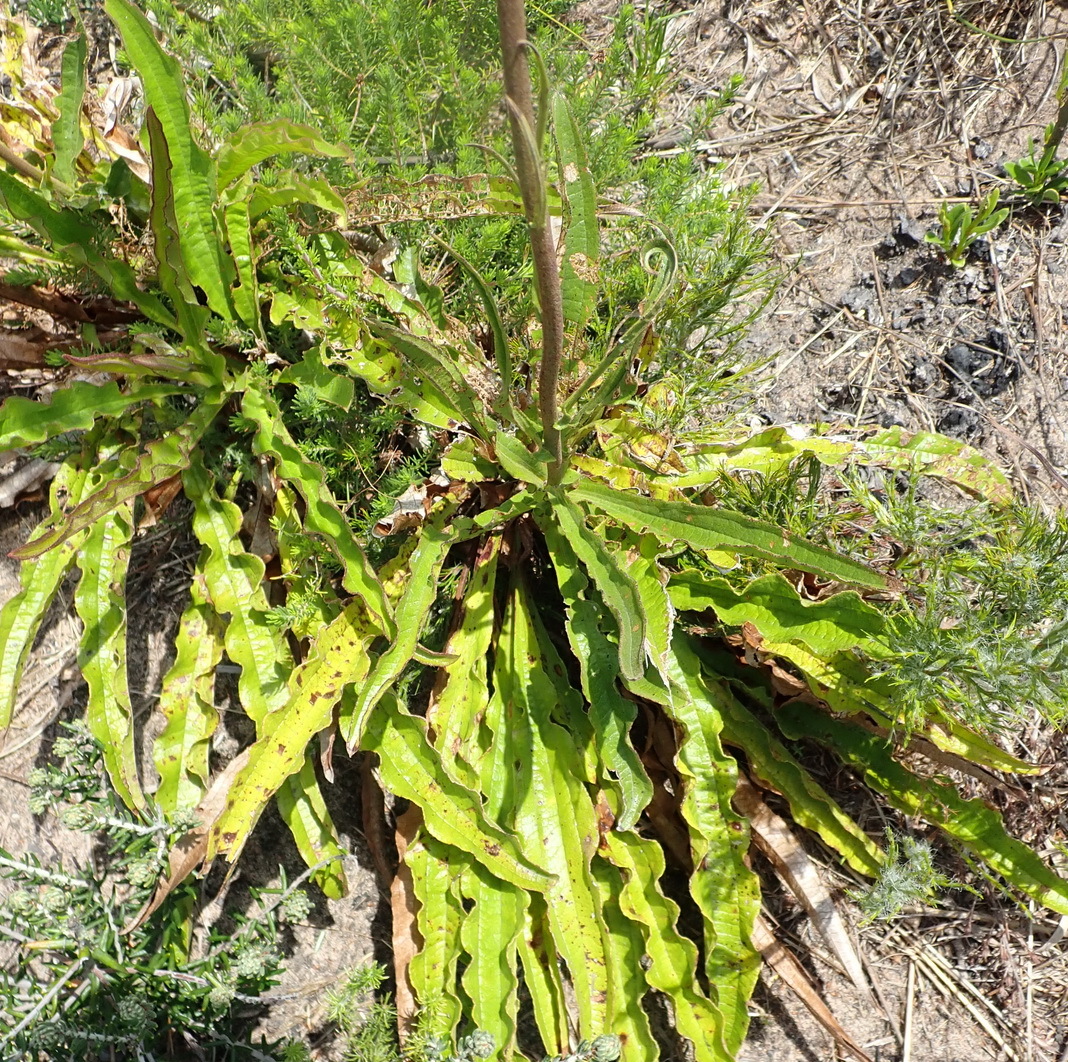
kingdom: Plantae
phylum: Tracheophyta
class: Magnoliopsida
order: Asterales
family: Asteraceae
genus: Helichrysum
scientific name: Helichrysum nudifolium
